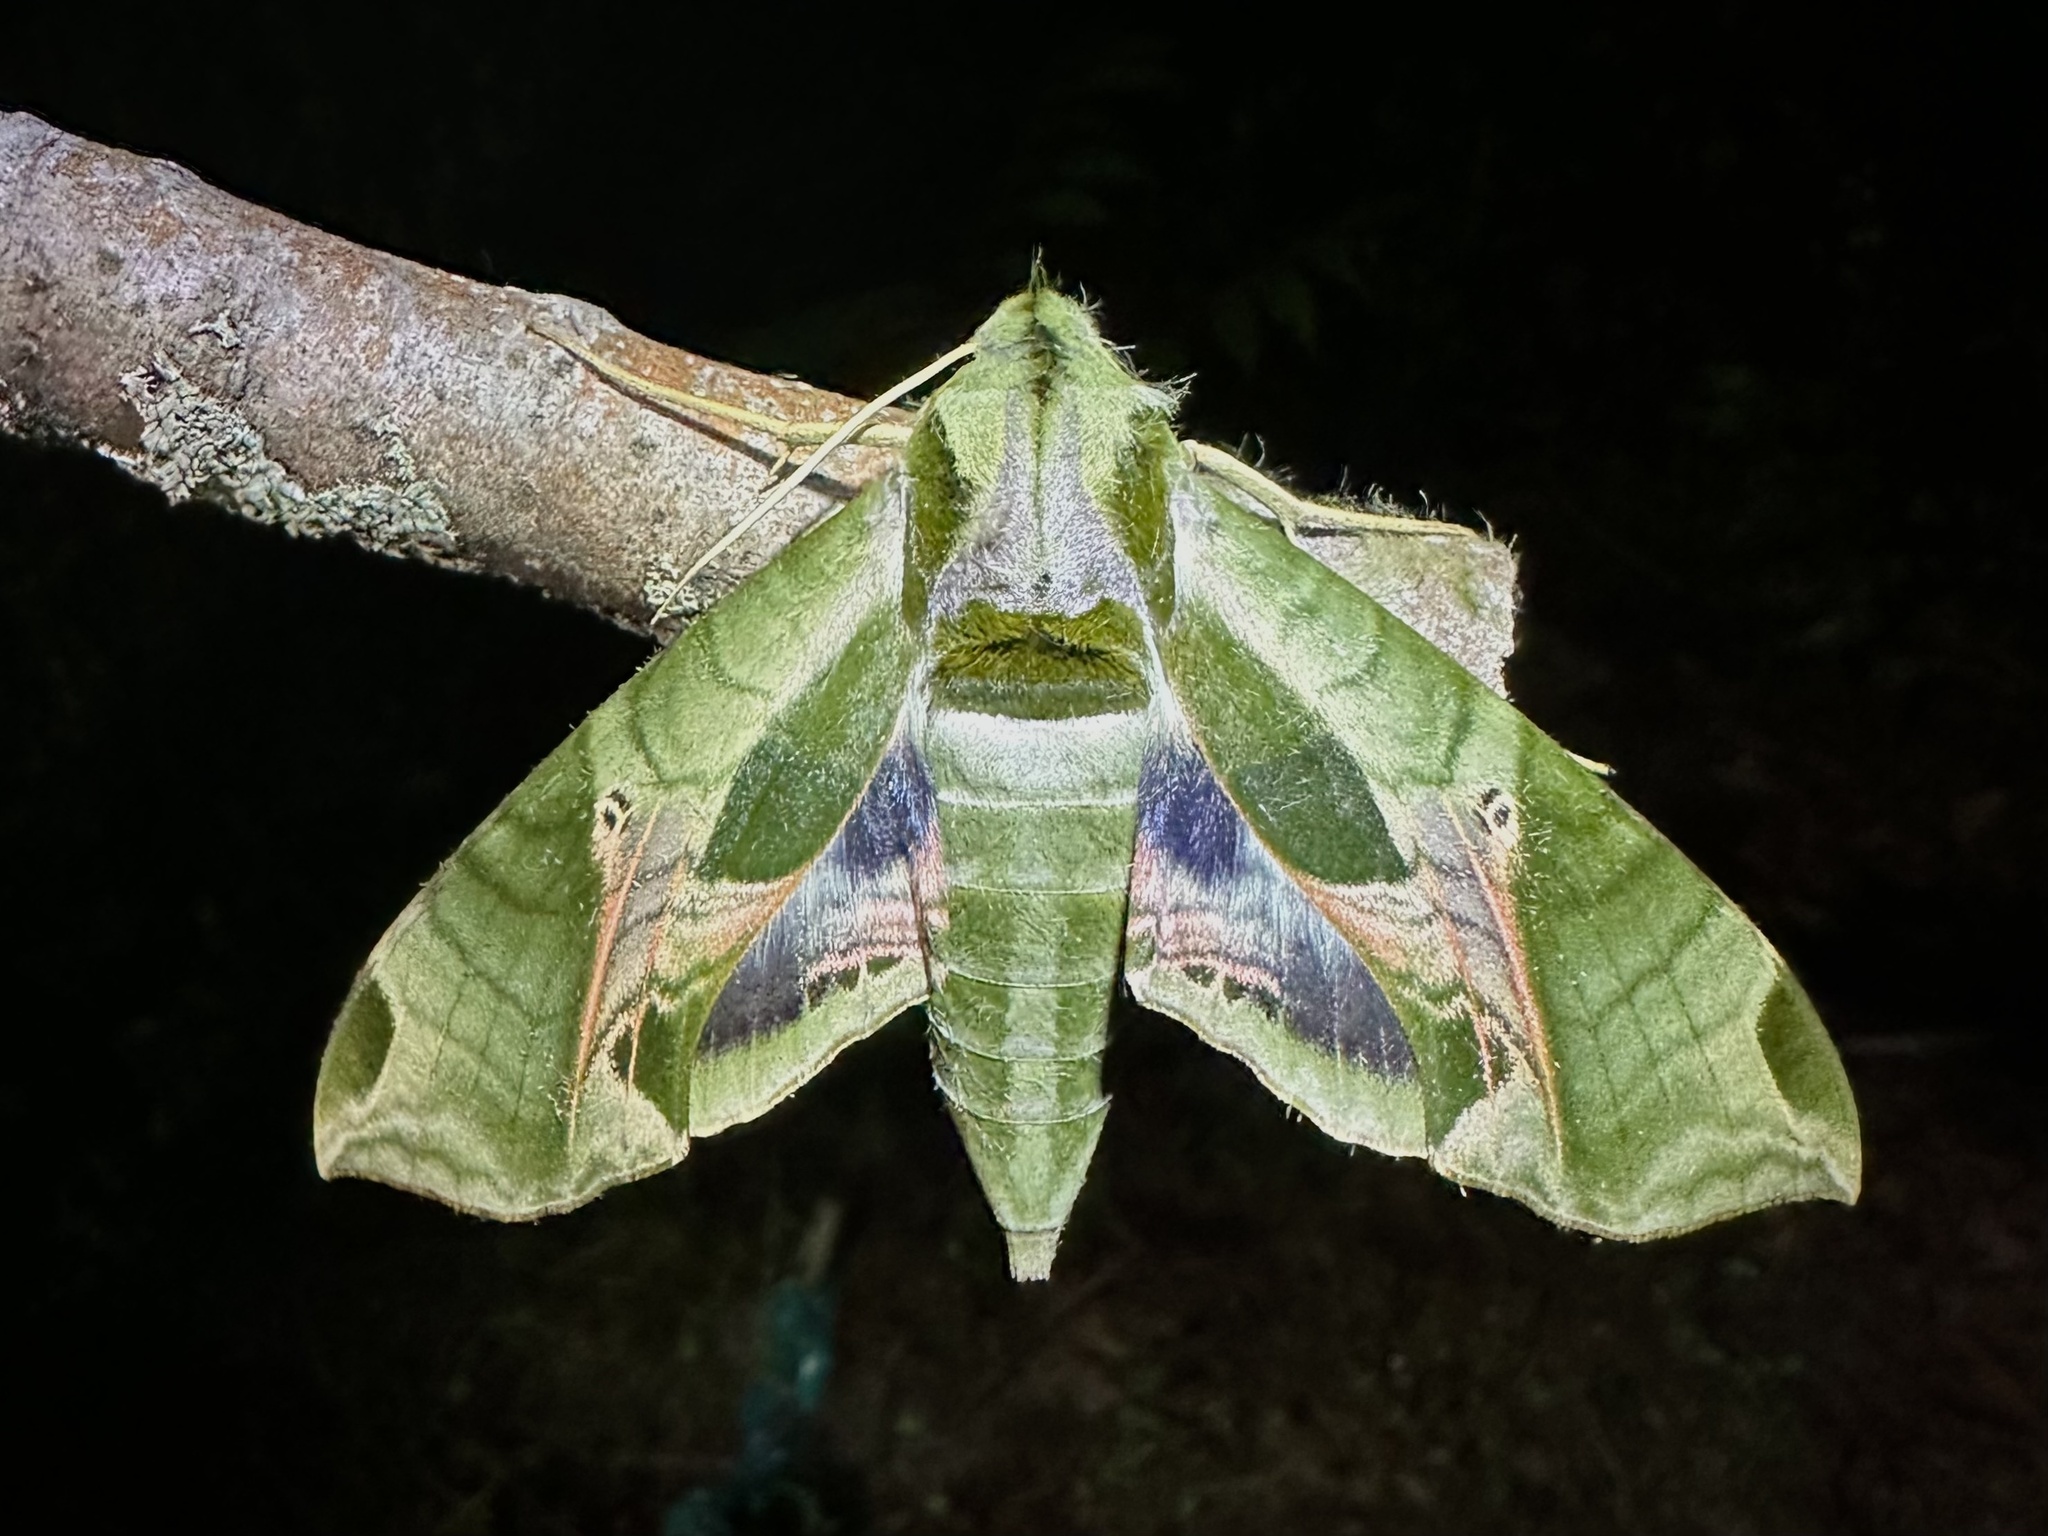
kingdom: Animalia
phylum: Arthropoda
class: Insecta
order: Lepidoptera
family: Sphingidae
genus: Eumorpha
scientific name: Eumorpha pandorus
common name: Pandora sphinx
